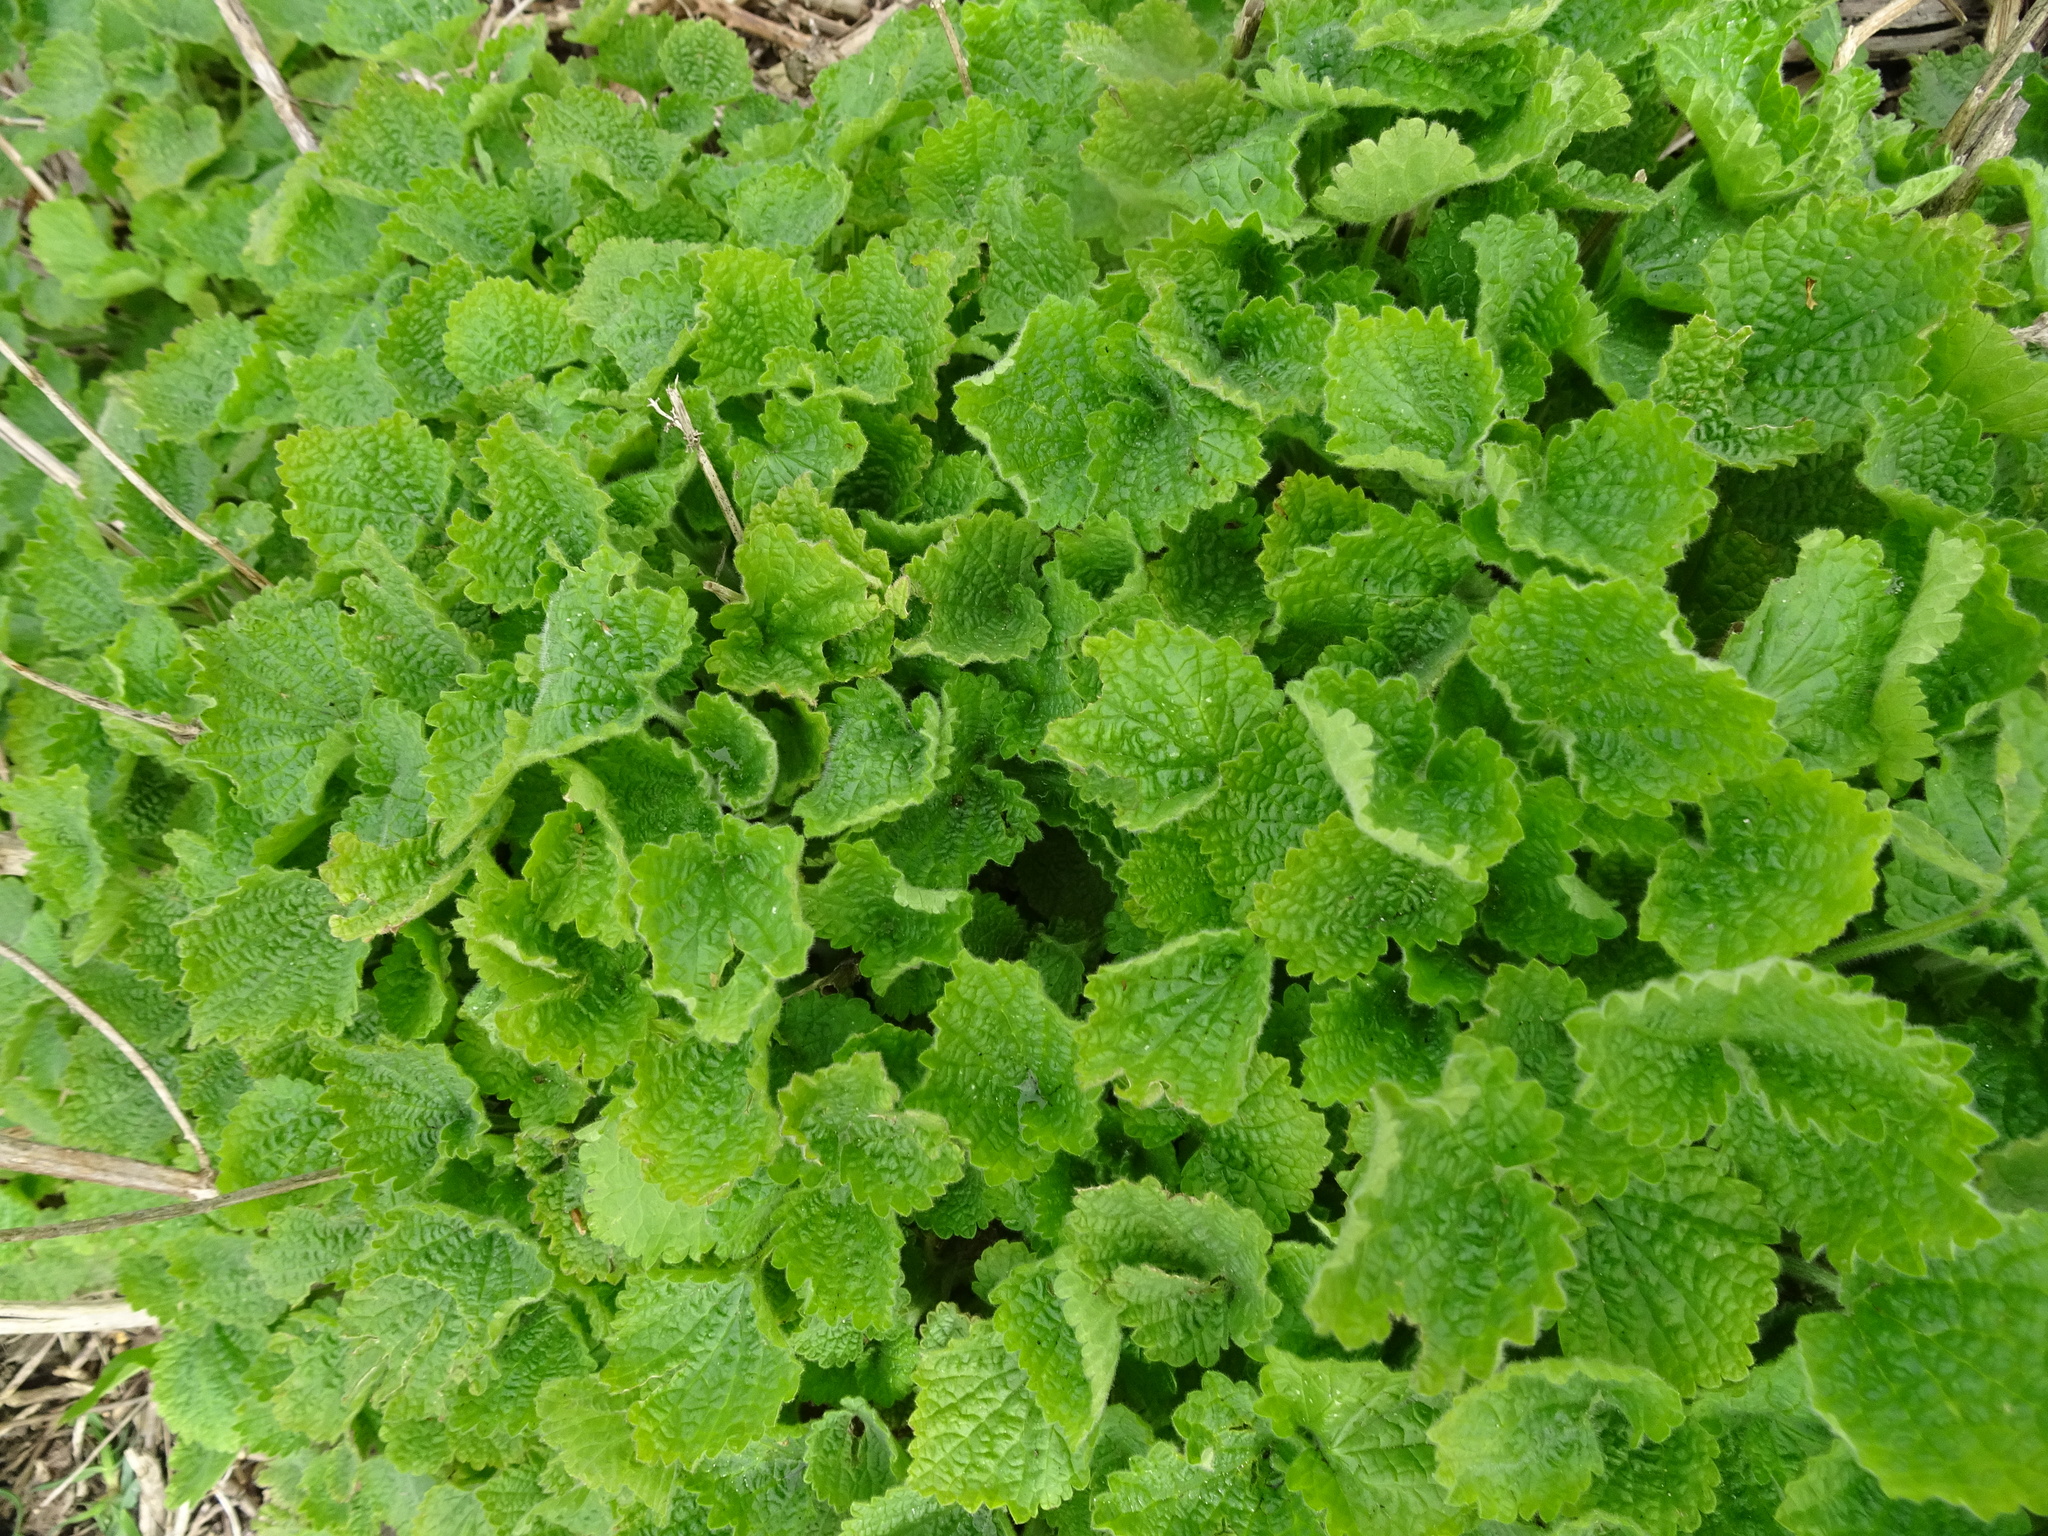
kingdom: Plantae
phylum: Tracheophyta
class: Magnoliopsida
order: Lamiales
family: Lamiaceae
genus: Ballota
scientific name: Ballota nigra
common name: Black horehound
